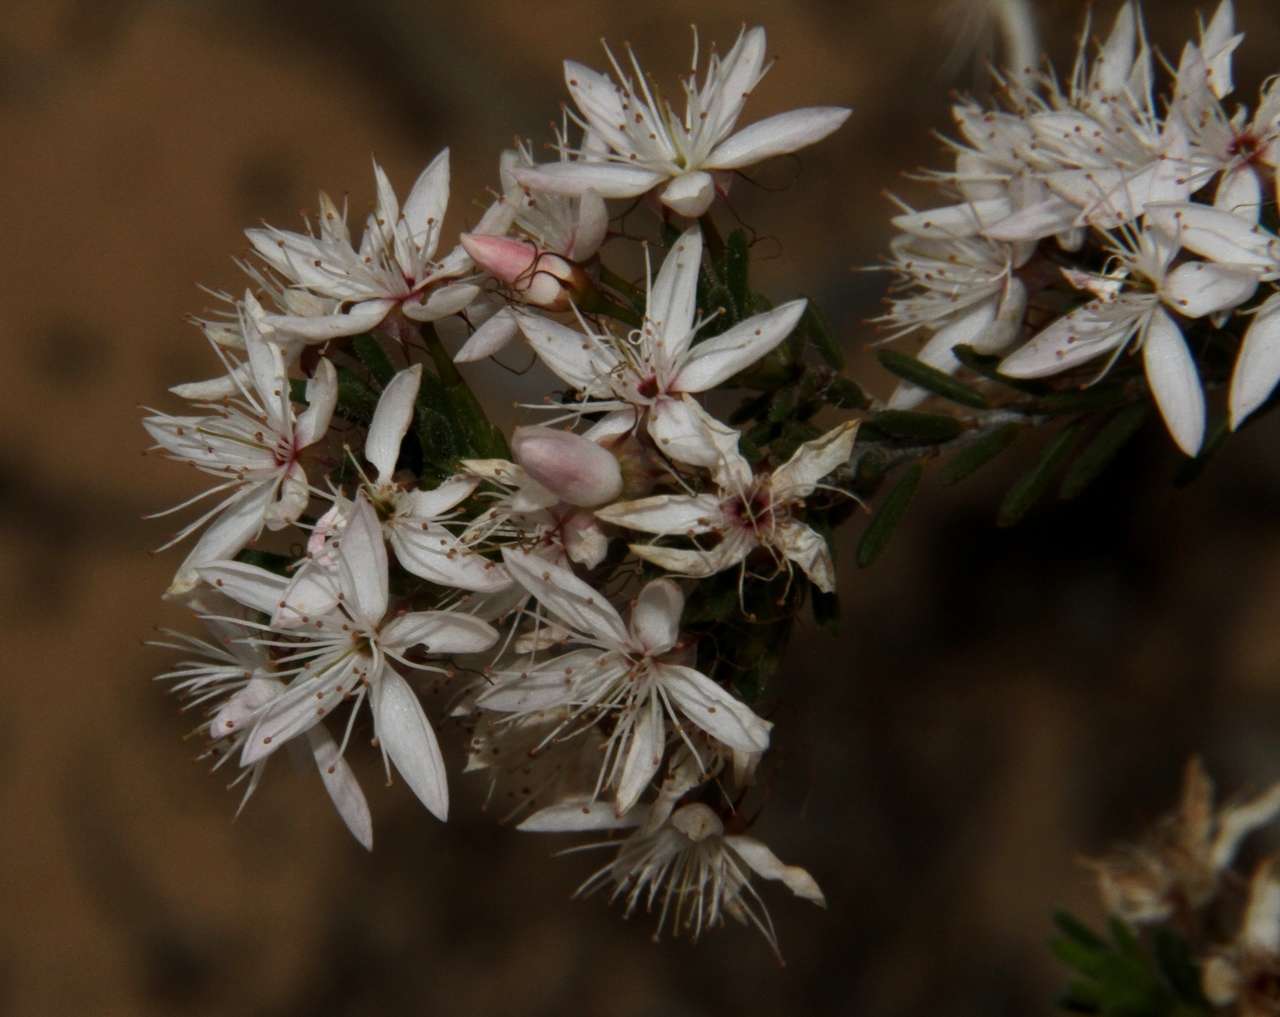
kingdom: Plantae
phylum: Tracheophyta
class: Magnoliopsida
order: Myrtales
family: Myrtaceae
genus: Calytrix
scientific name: Calytrix tetragona
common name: Common fringe myrtle
